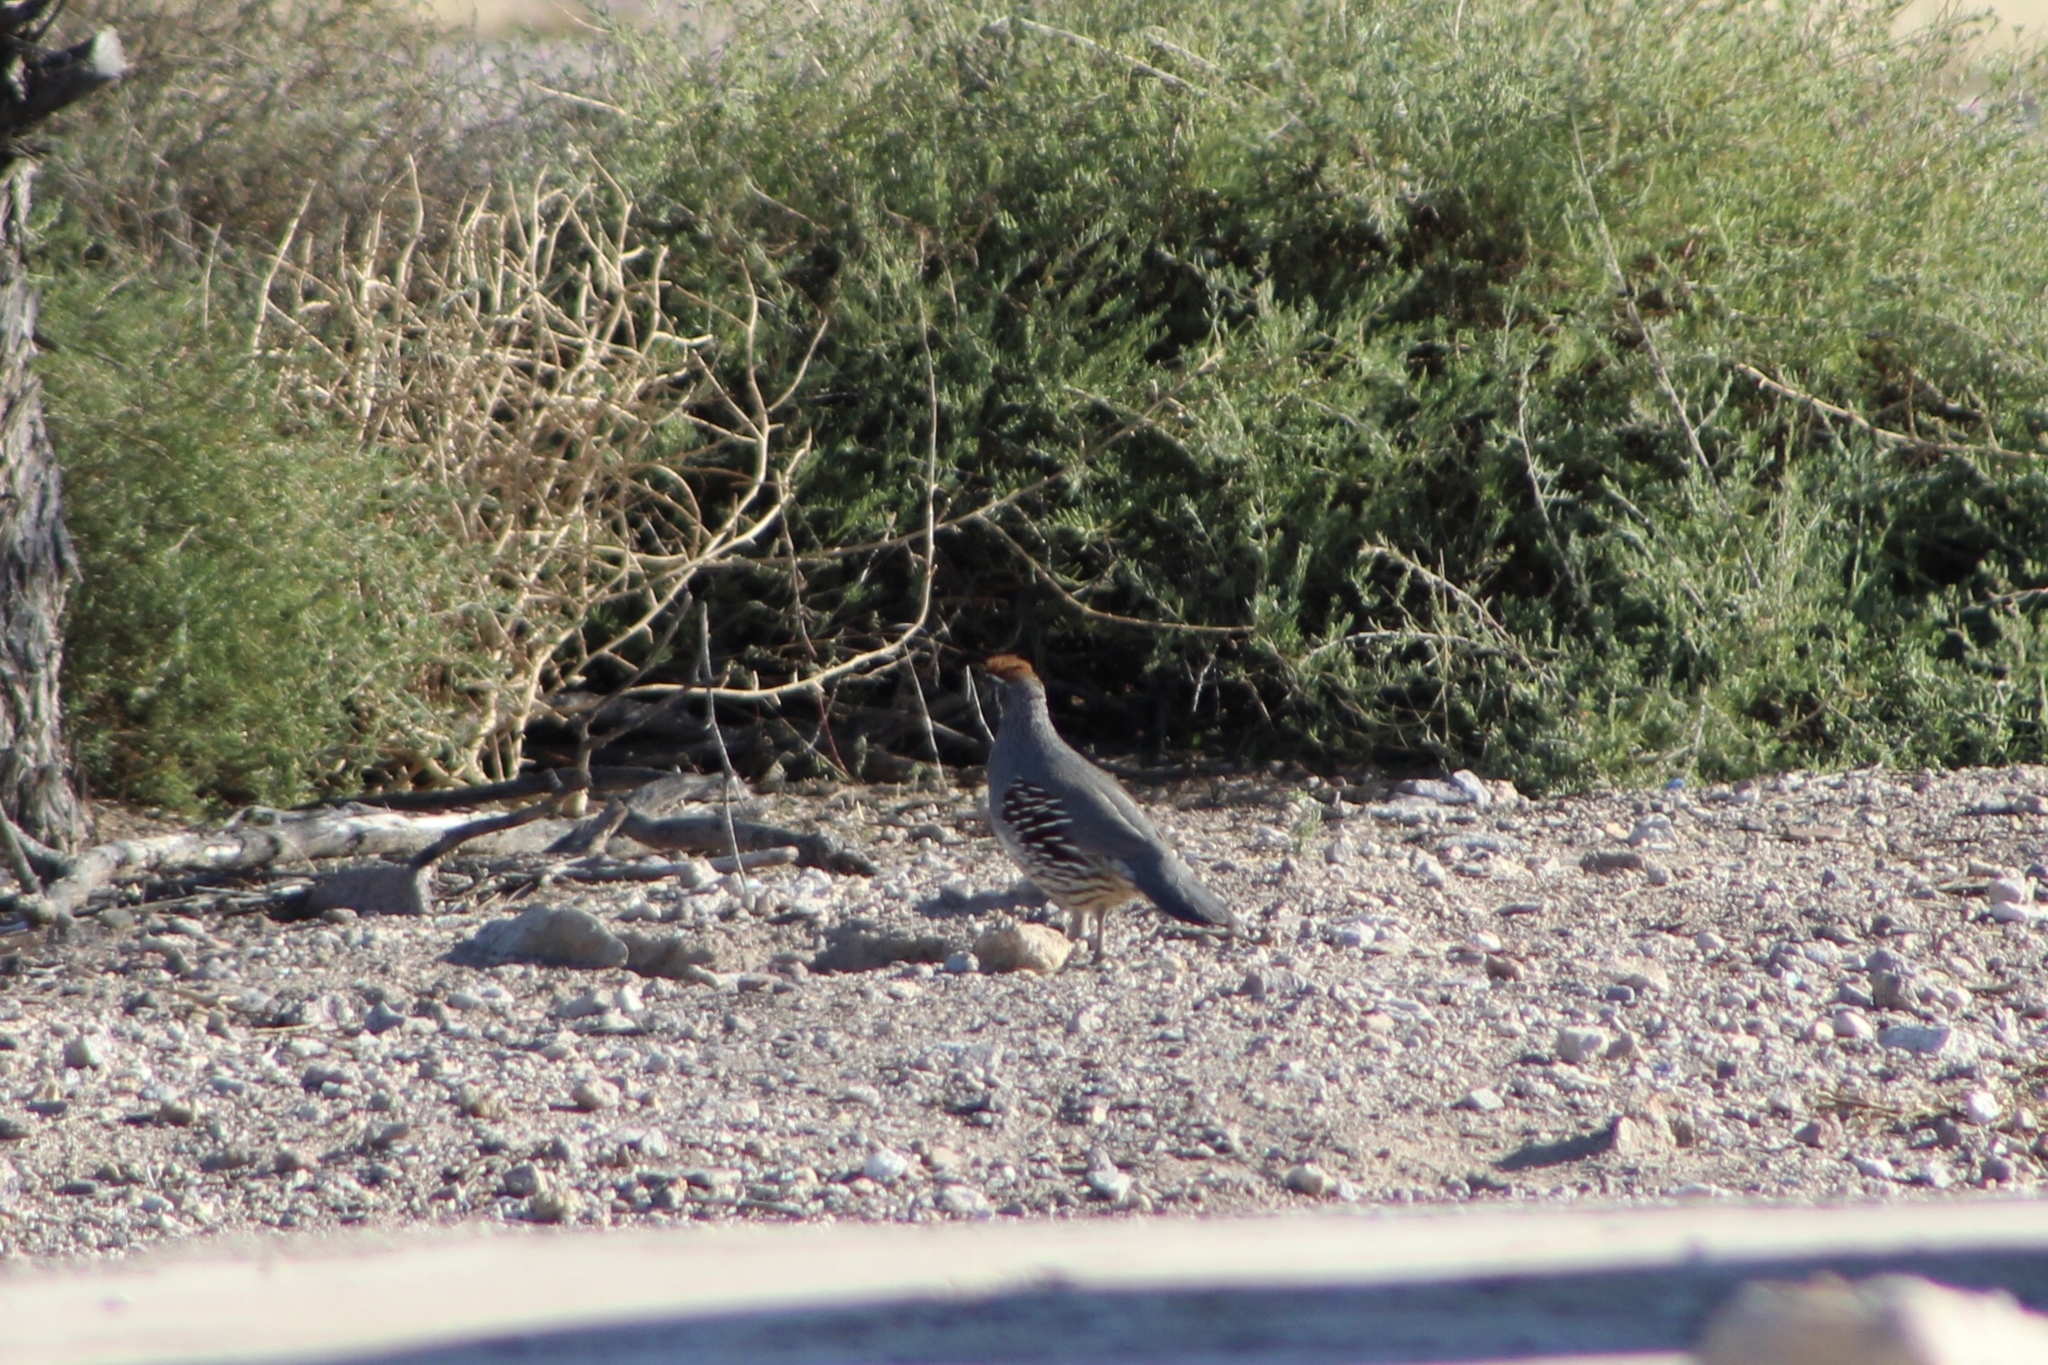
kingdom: Animalia
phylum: Chordata
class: Aves
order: Galliformes
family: Odontophoridae
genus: Callipepla
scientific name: Callipepla gambelii
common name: Gambel's quail
